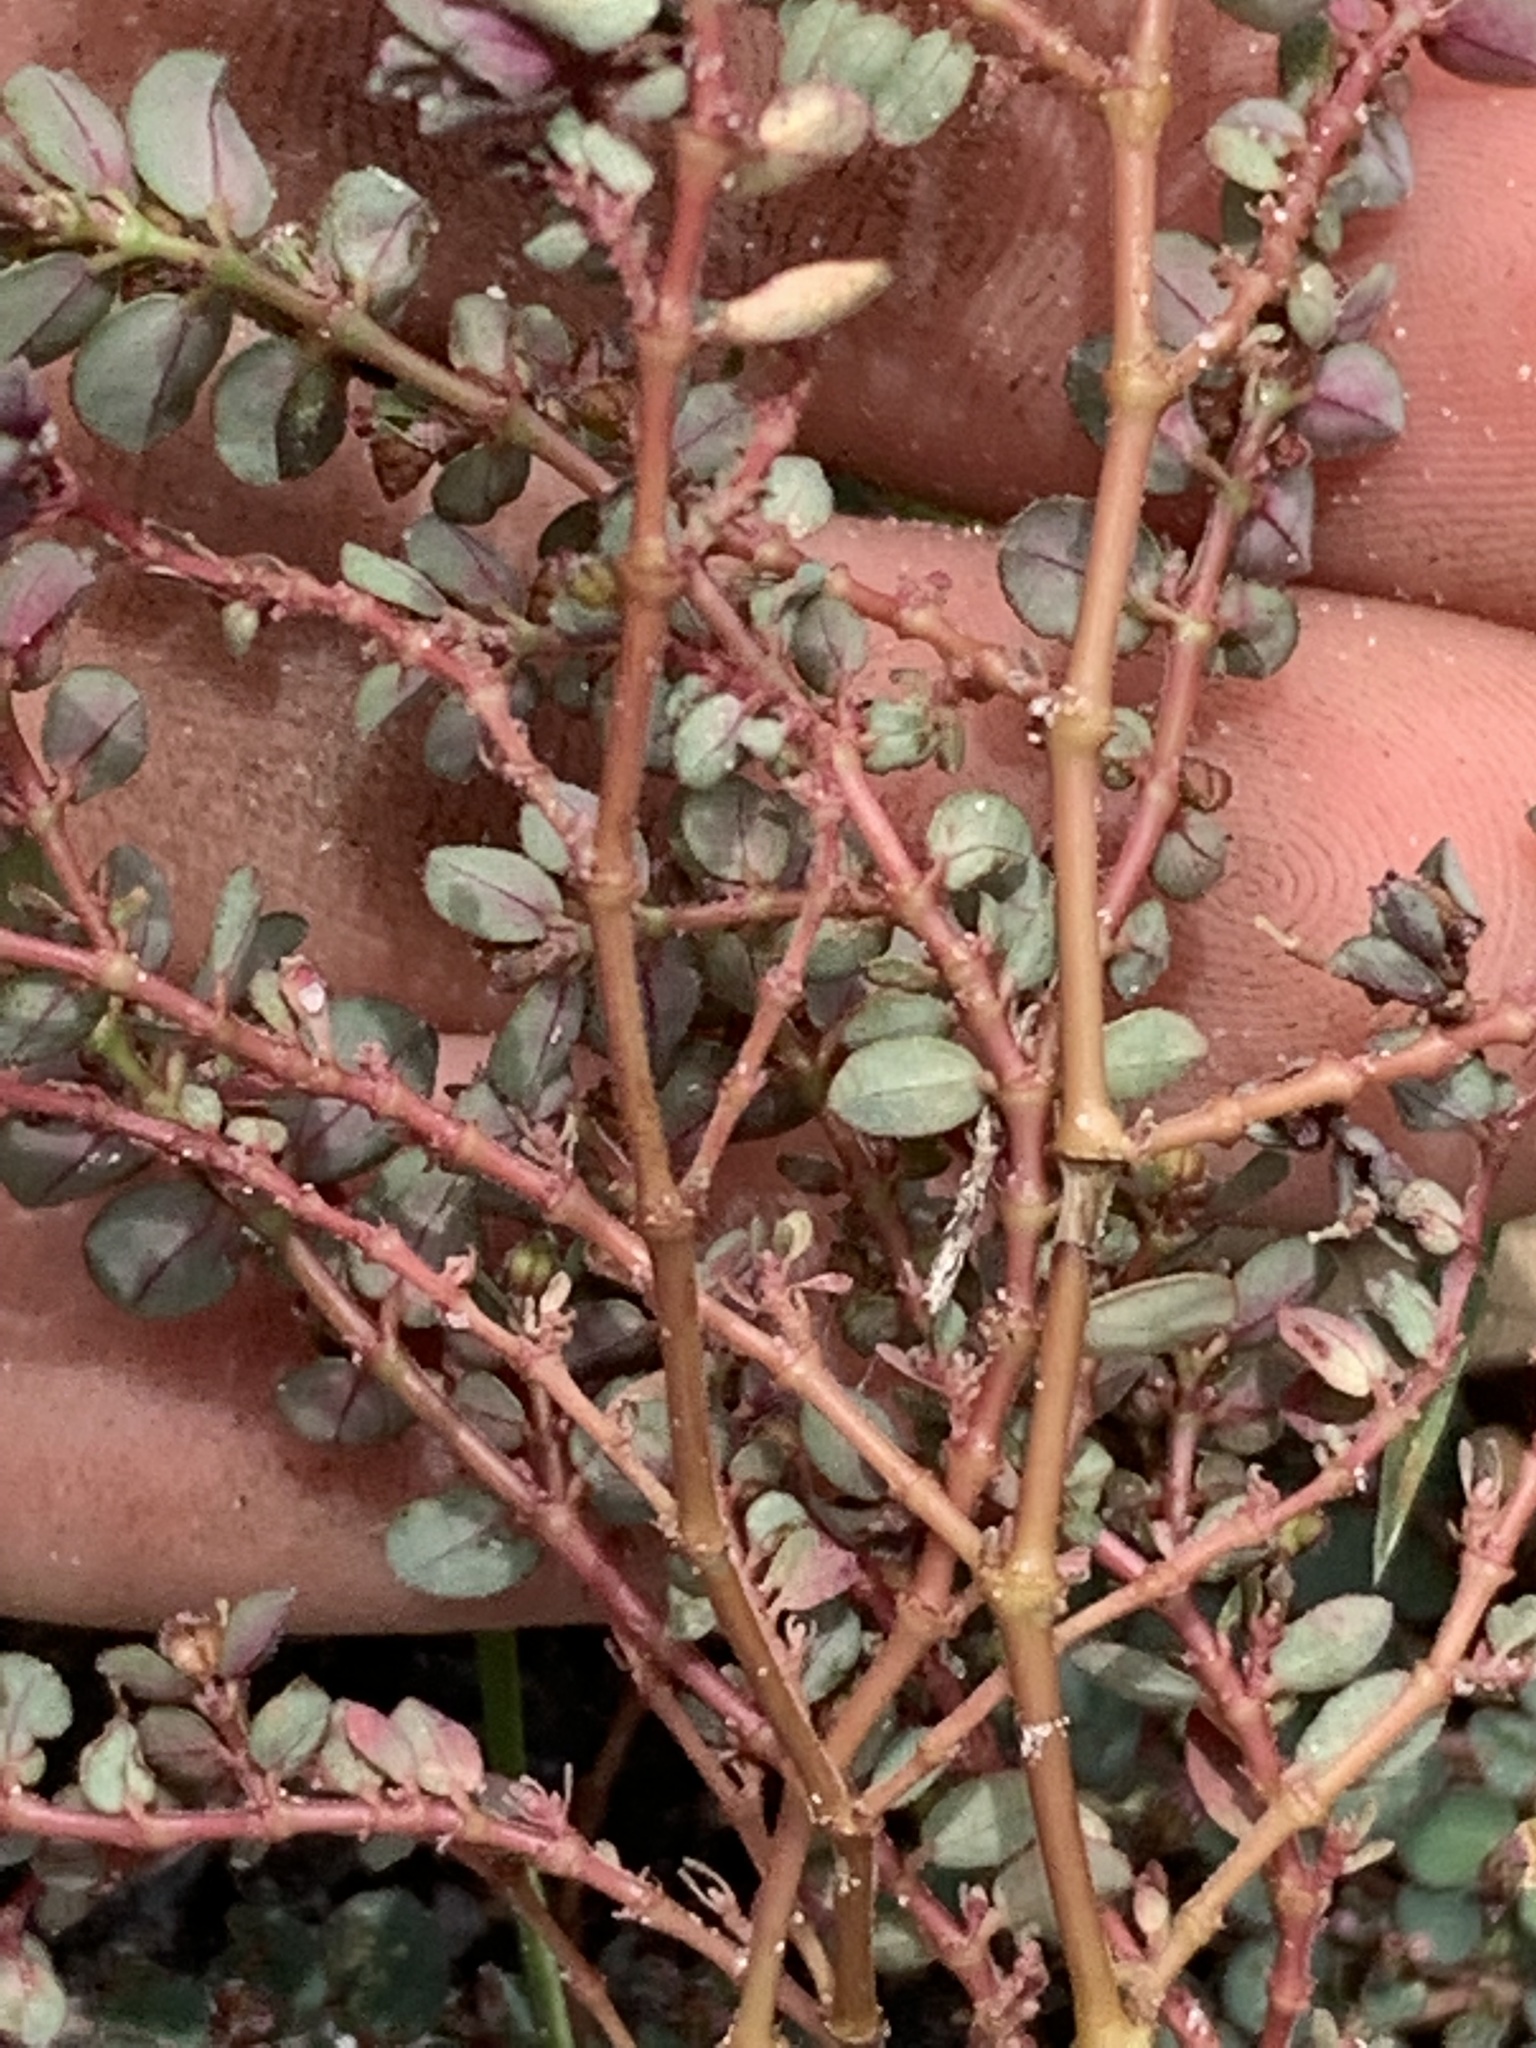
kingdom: Plantae
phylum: Tracheophyta
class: Magnoliopsida
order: Malpighiales
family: Euphorbiaceae
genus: Euphorbia
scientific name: Euphorbia prostrata
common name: Prostrate sandmat
